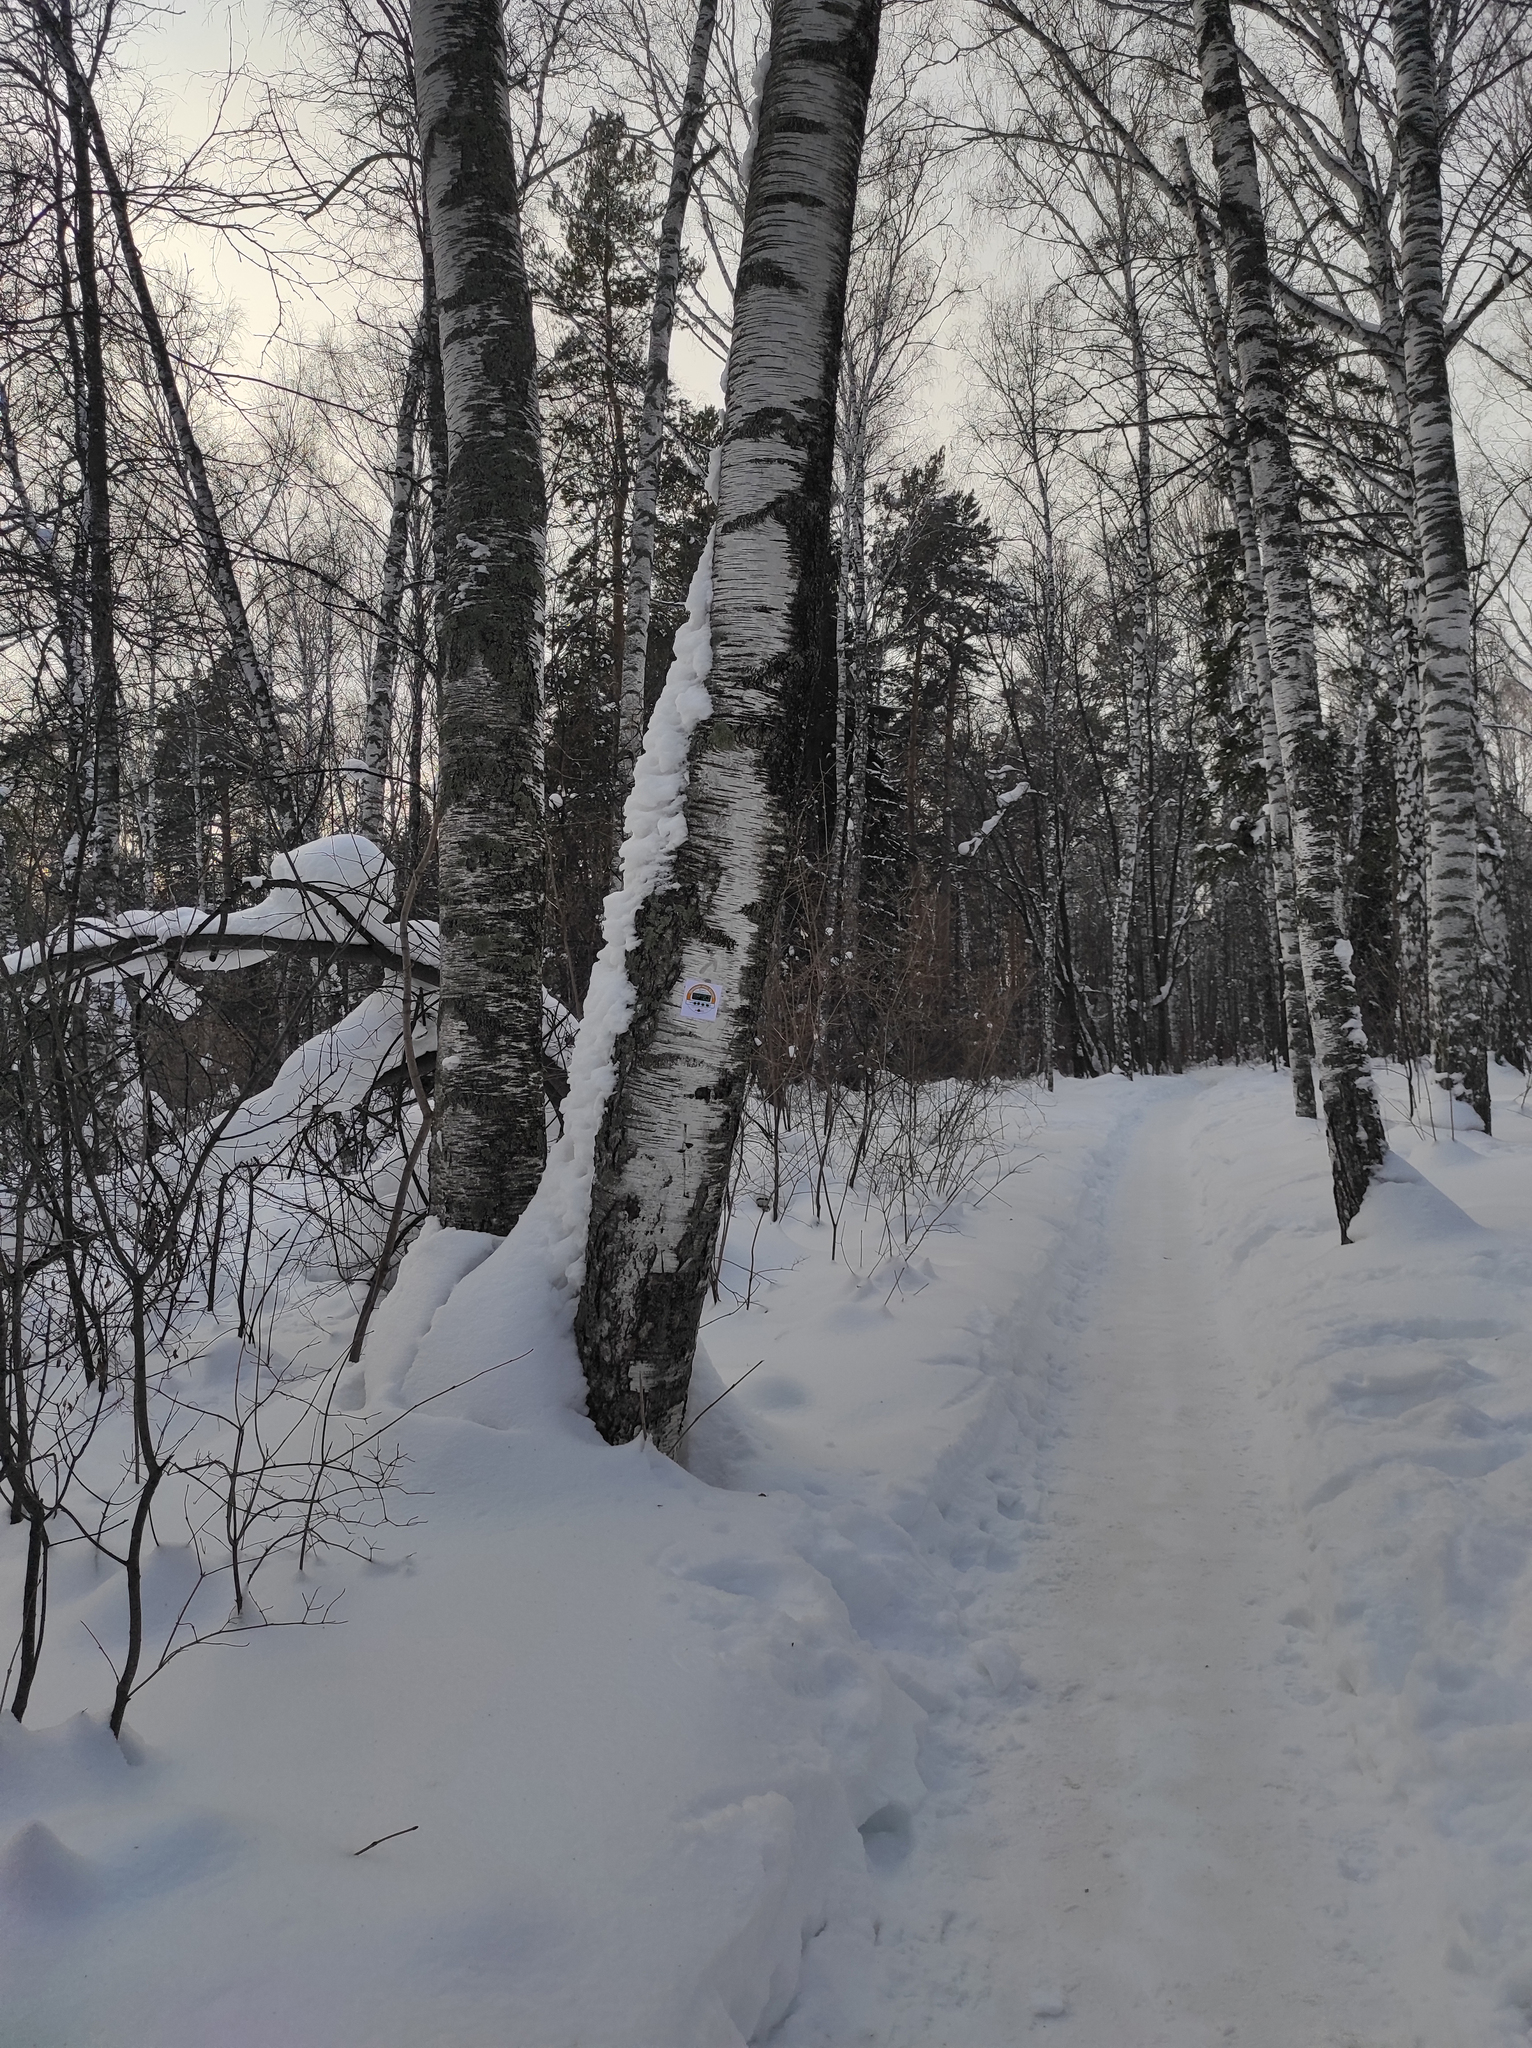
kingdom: Plantae
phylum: Tracheophyta
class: Magnoliopsida
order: Fagales
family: Betulaceae
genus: Betula
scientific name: Betula pendula
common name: Silver birch
